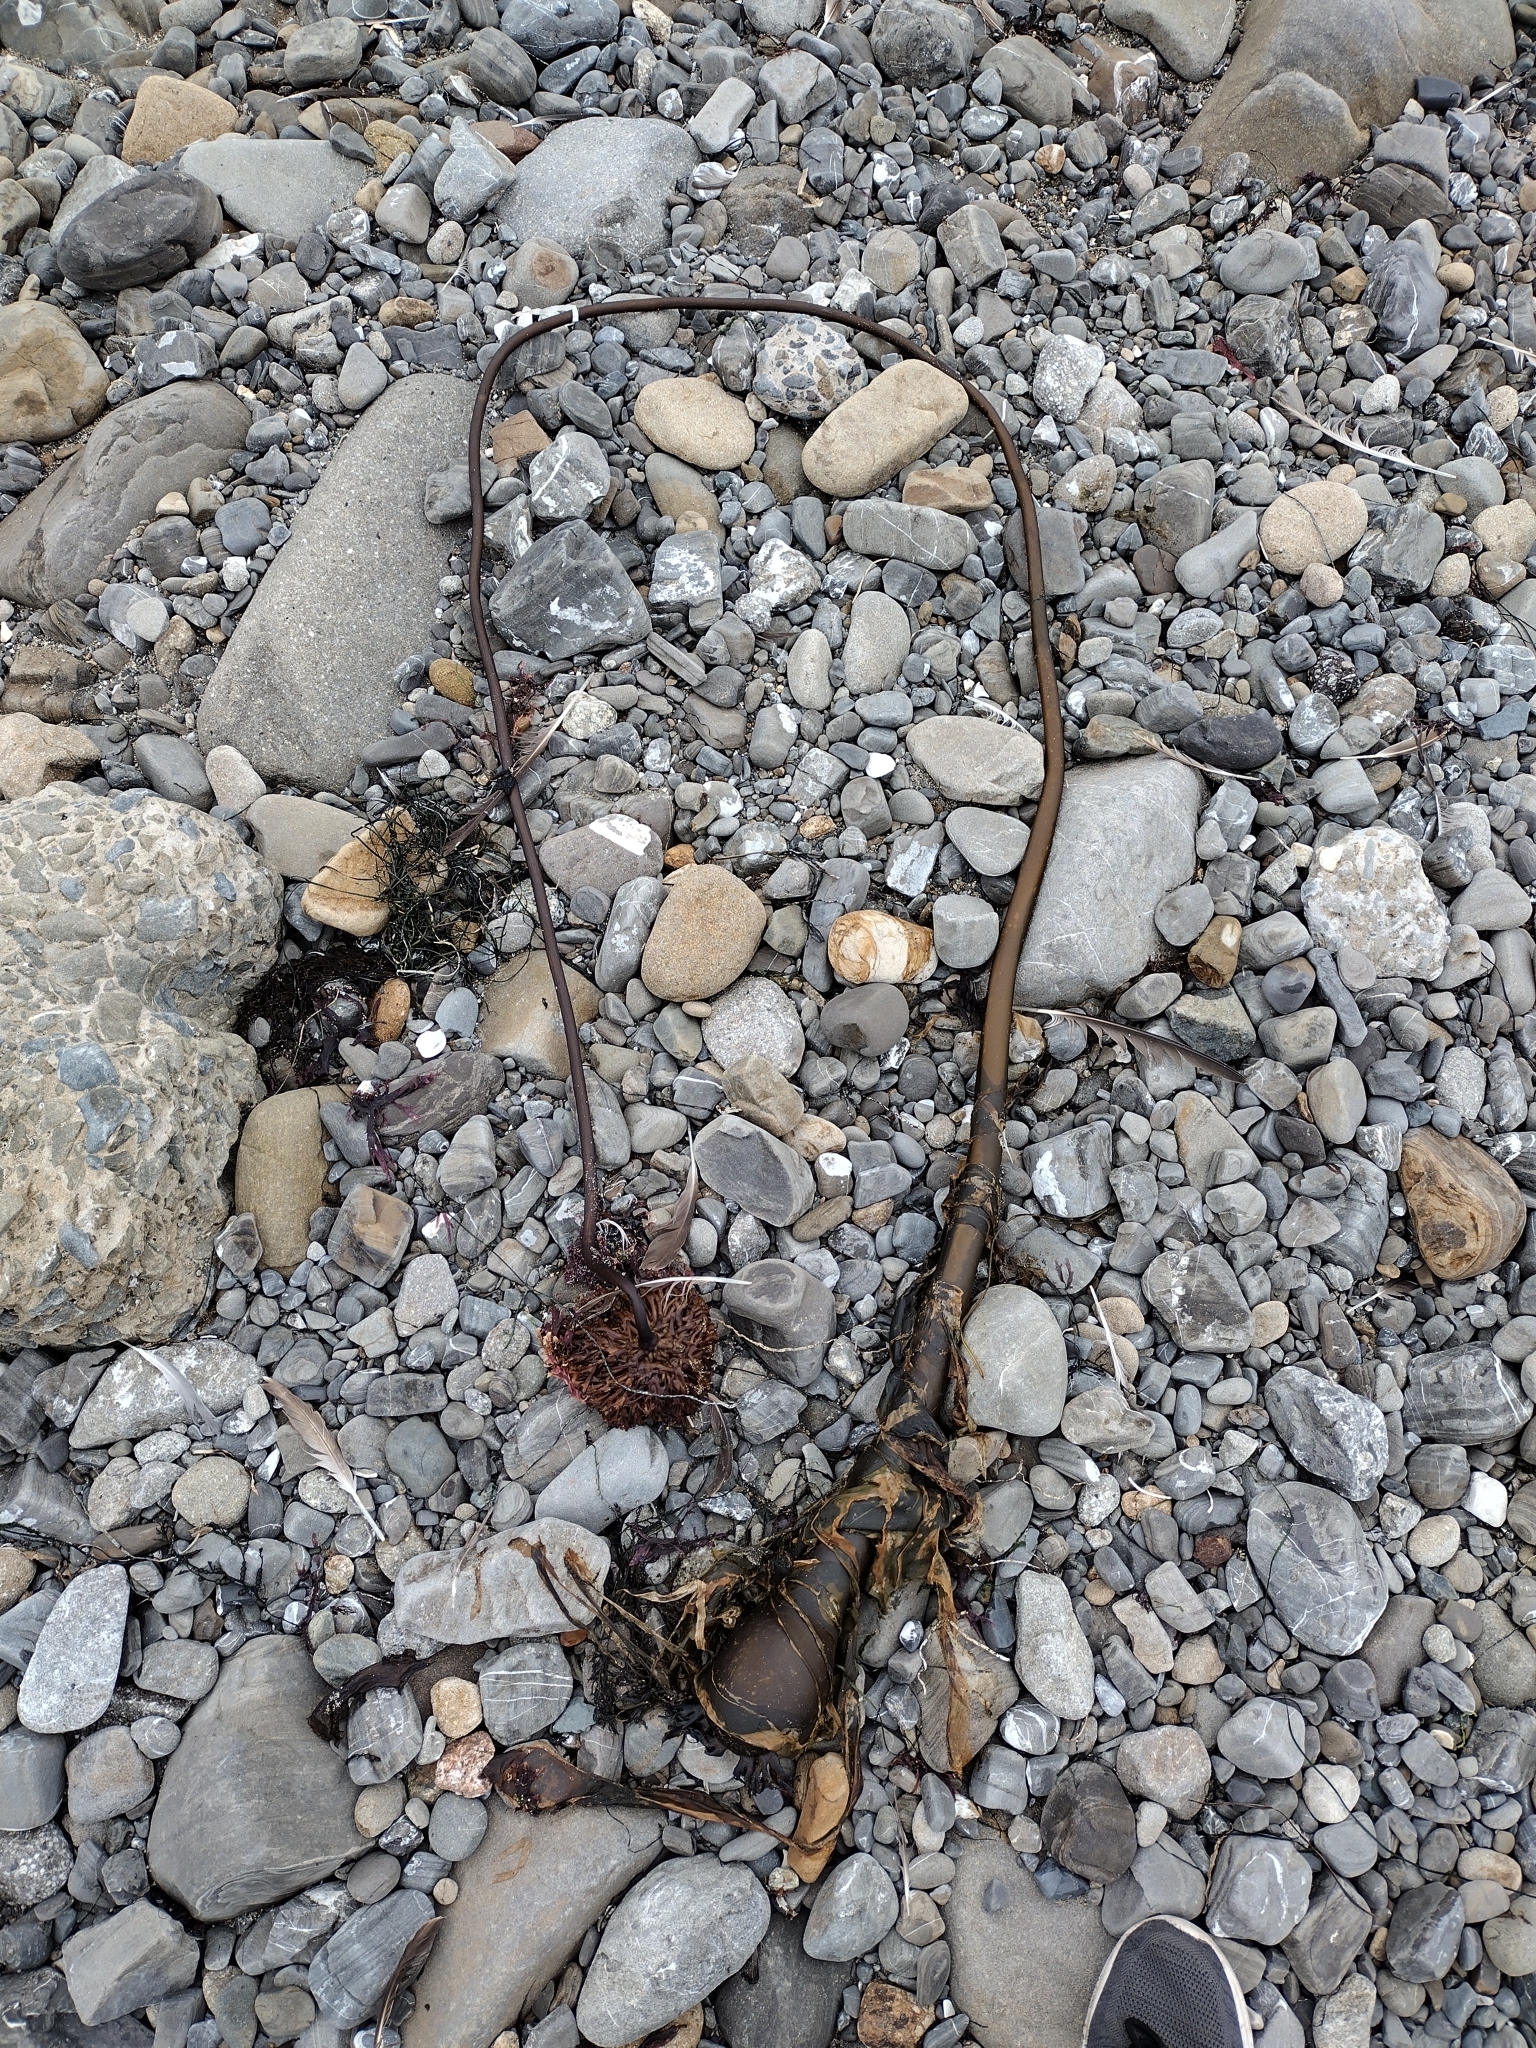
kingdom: Chromista
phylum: Ochrophyta
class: Phaeophyceae
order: Laminariales
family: Laminariaceae
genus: Nereocystis
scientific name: Nereocystis luetkeana
